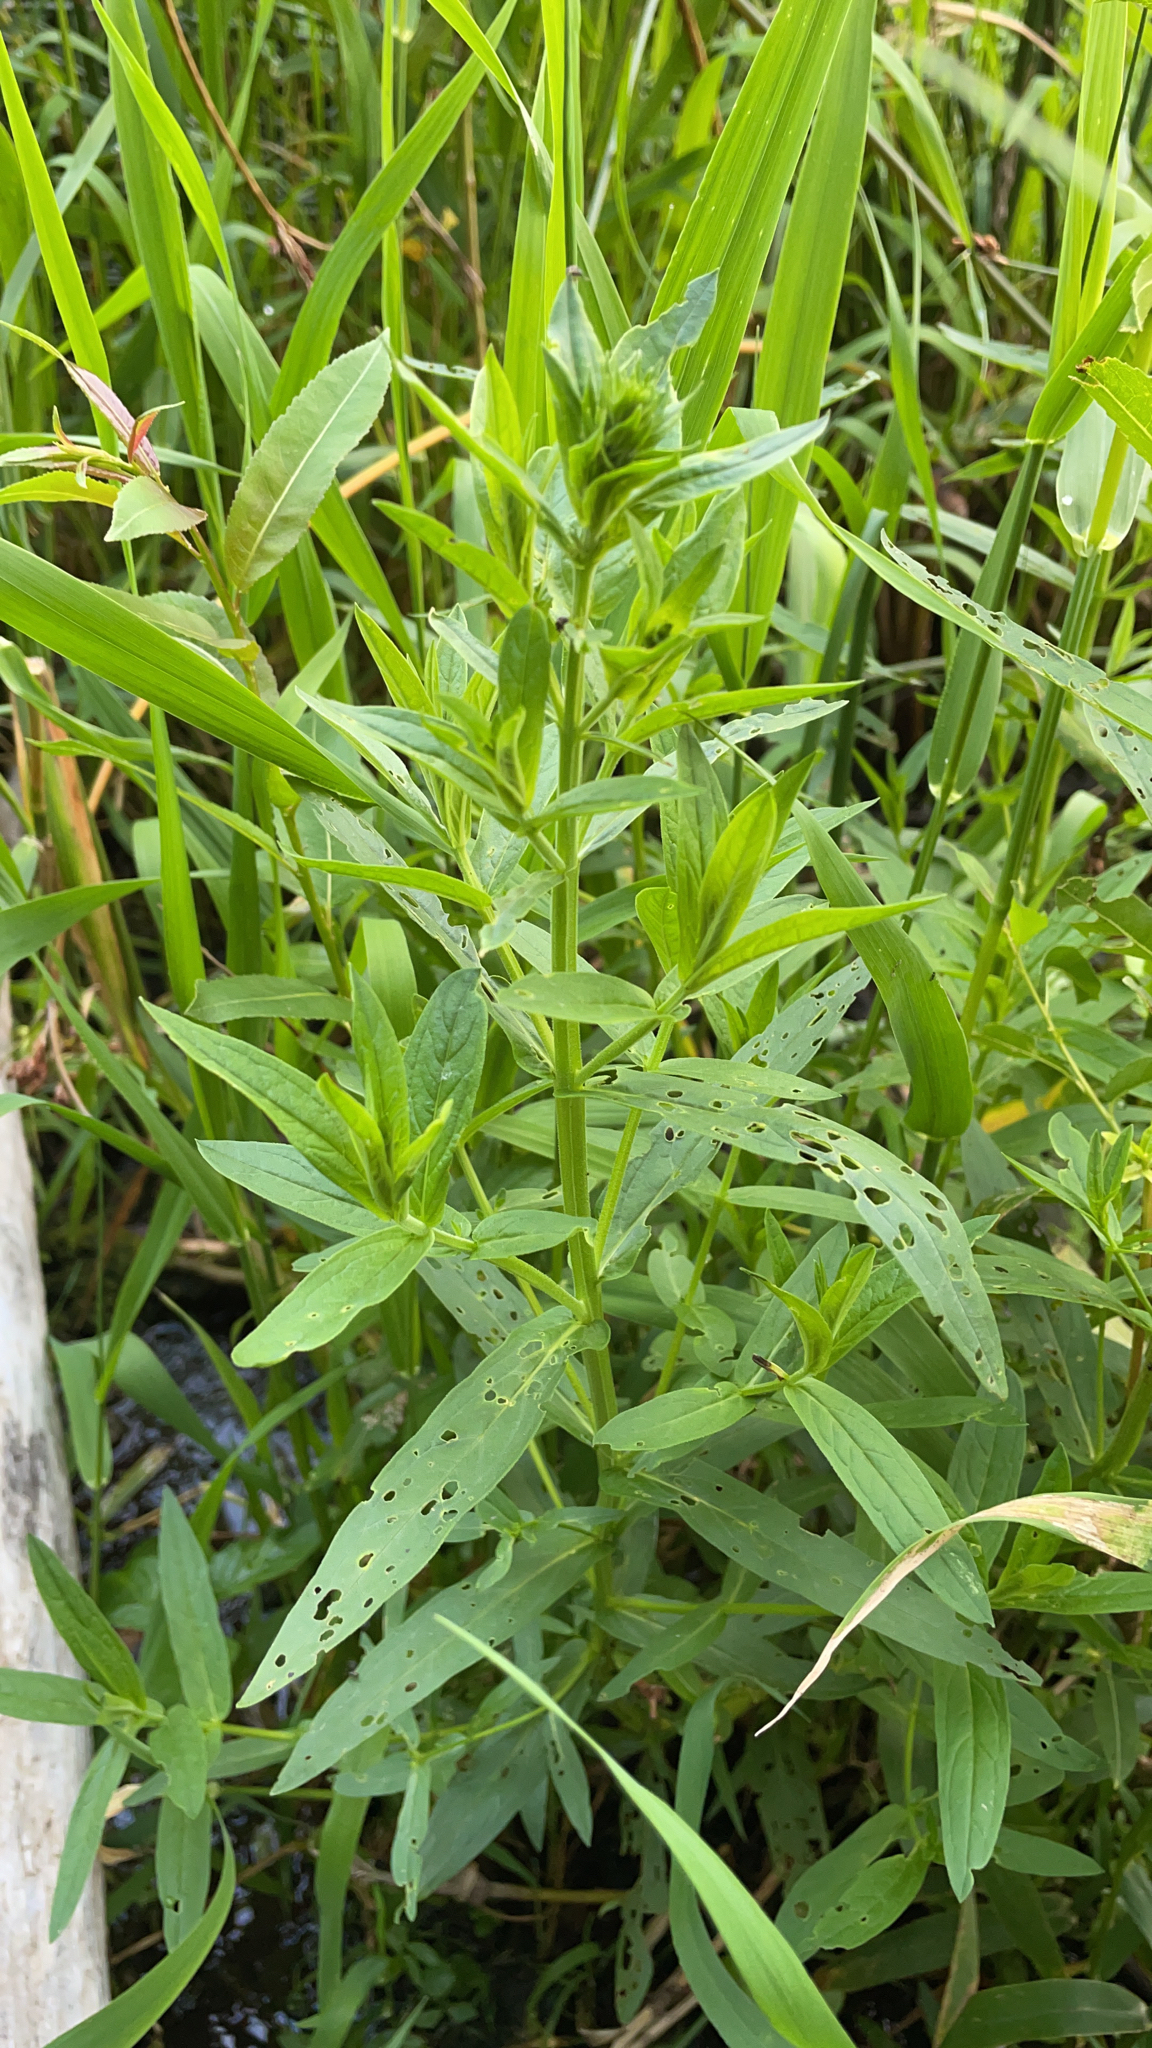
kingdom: Plantae
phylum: Tracheophyta
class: Magnoliopsida
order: Myrtales
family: Lythraceae
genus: Lythrum
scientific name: Lythrum salicaria
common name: Purple loosestrife
